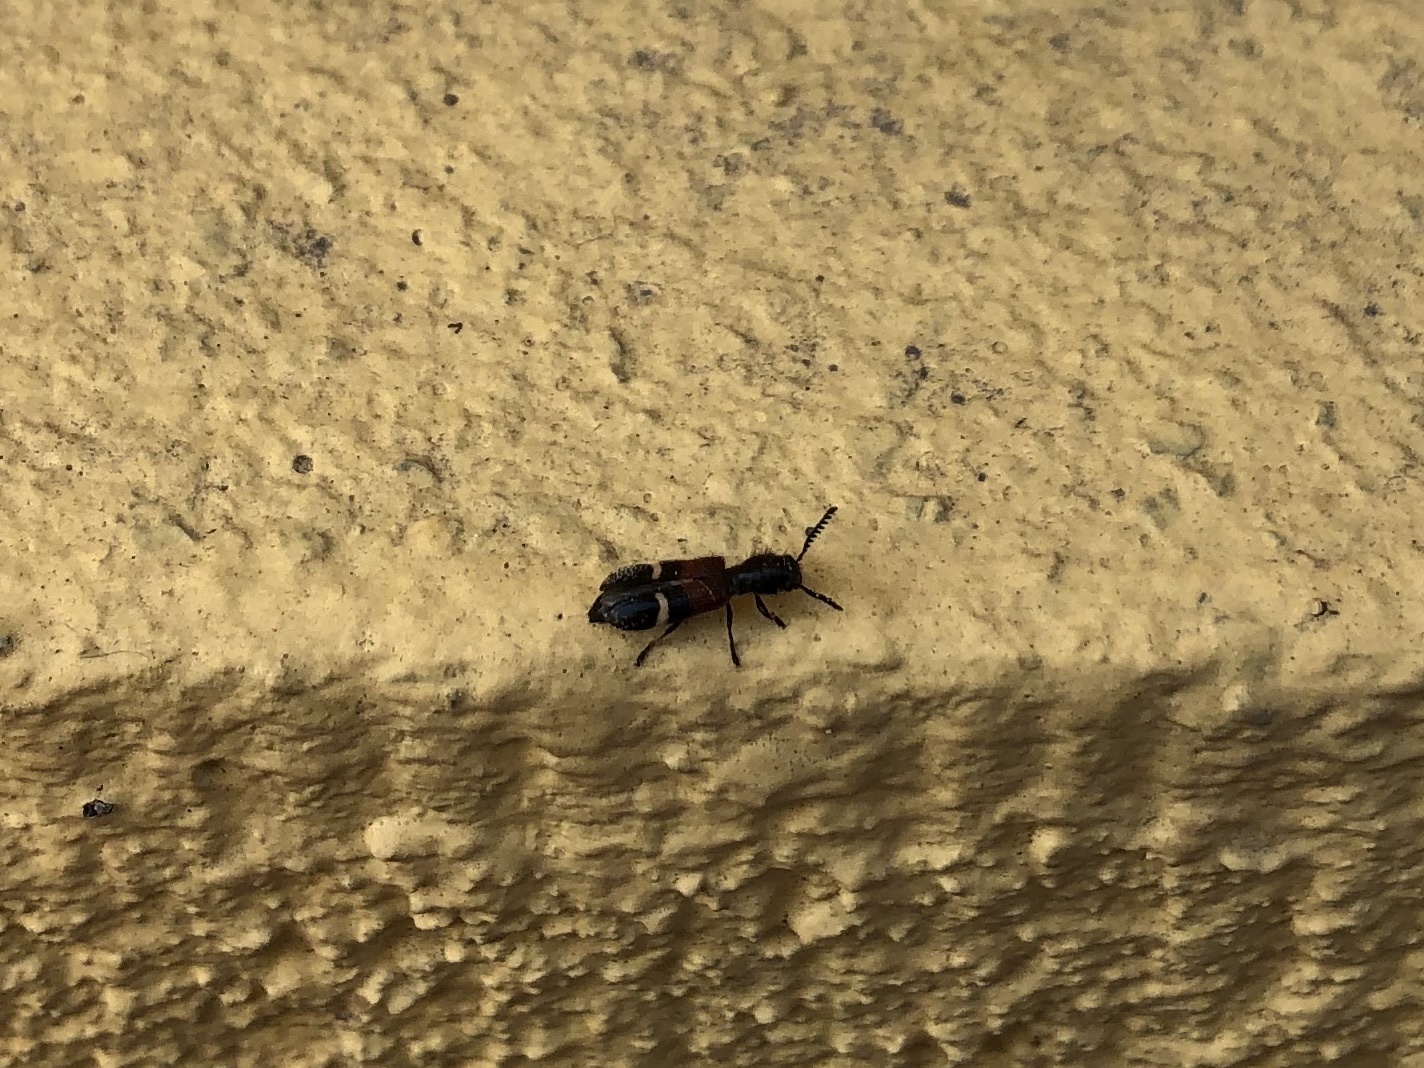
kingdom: Animalia
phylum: Arthropoda
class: Insecta
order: Coleoptera
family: Cleridae
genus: Tilloidea
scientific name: Tilloidea unifasciata
